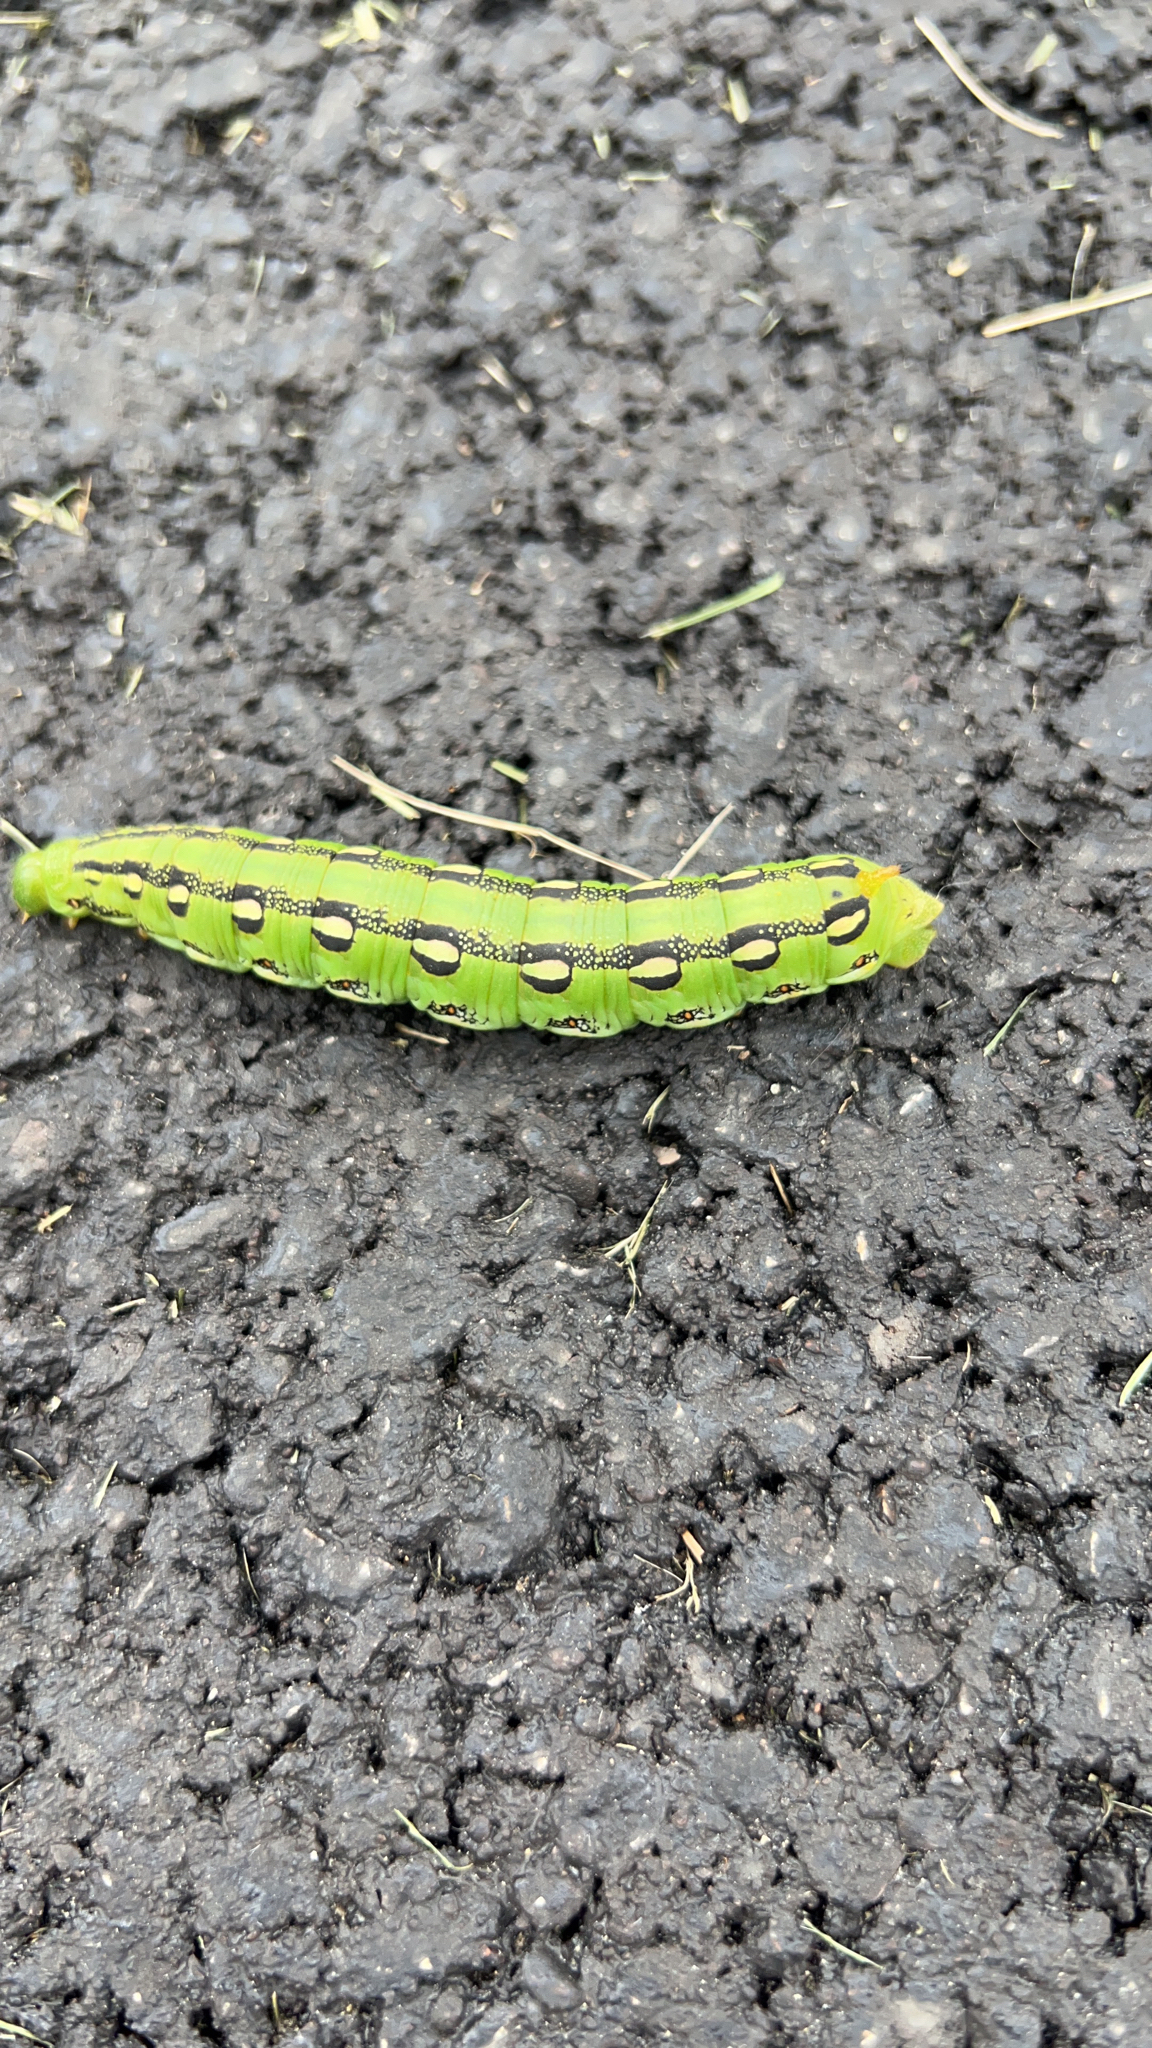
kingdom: Animalia
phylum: Arthropoda
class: Insecta
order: Lepidoptera
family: Sphingidae
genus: Hyles
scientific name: Hyles lineata
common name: White-lined sphinx
